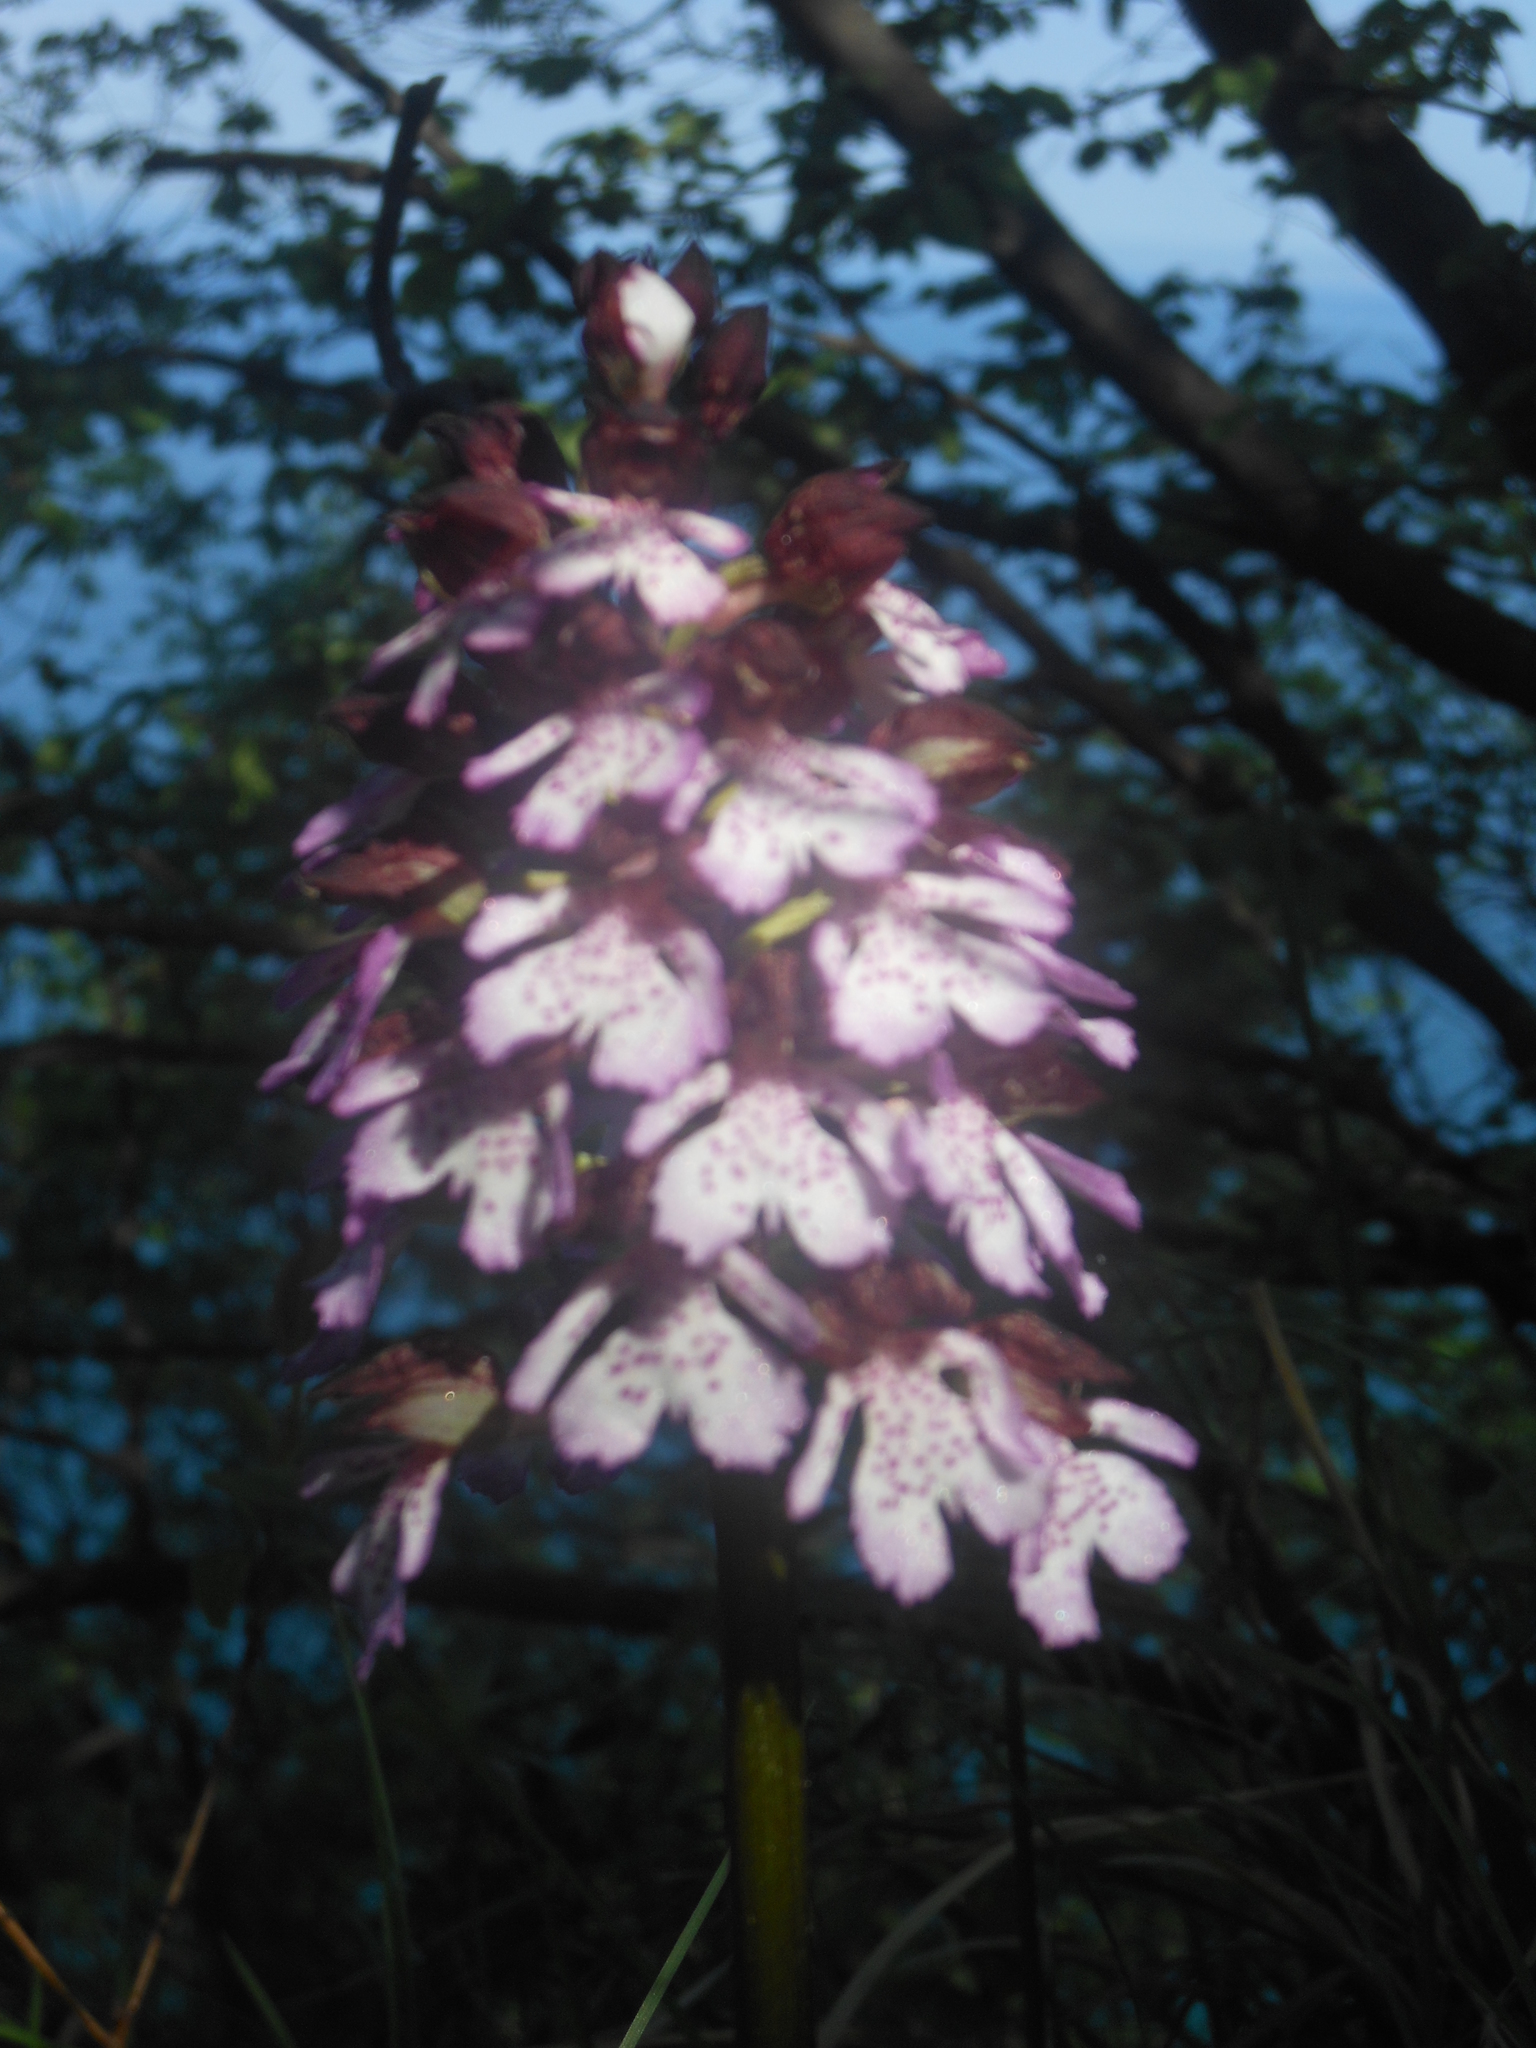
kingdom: Plantae
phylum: Tracheophyta
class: Liliopsida
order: Asparagales
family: Orchidaceae
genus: Orchis
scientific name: Orchis purpurea
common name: Lady orchid
